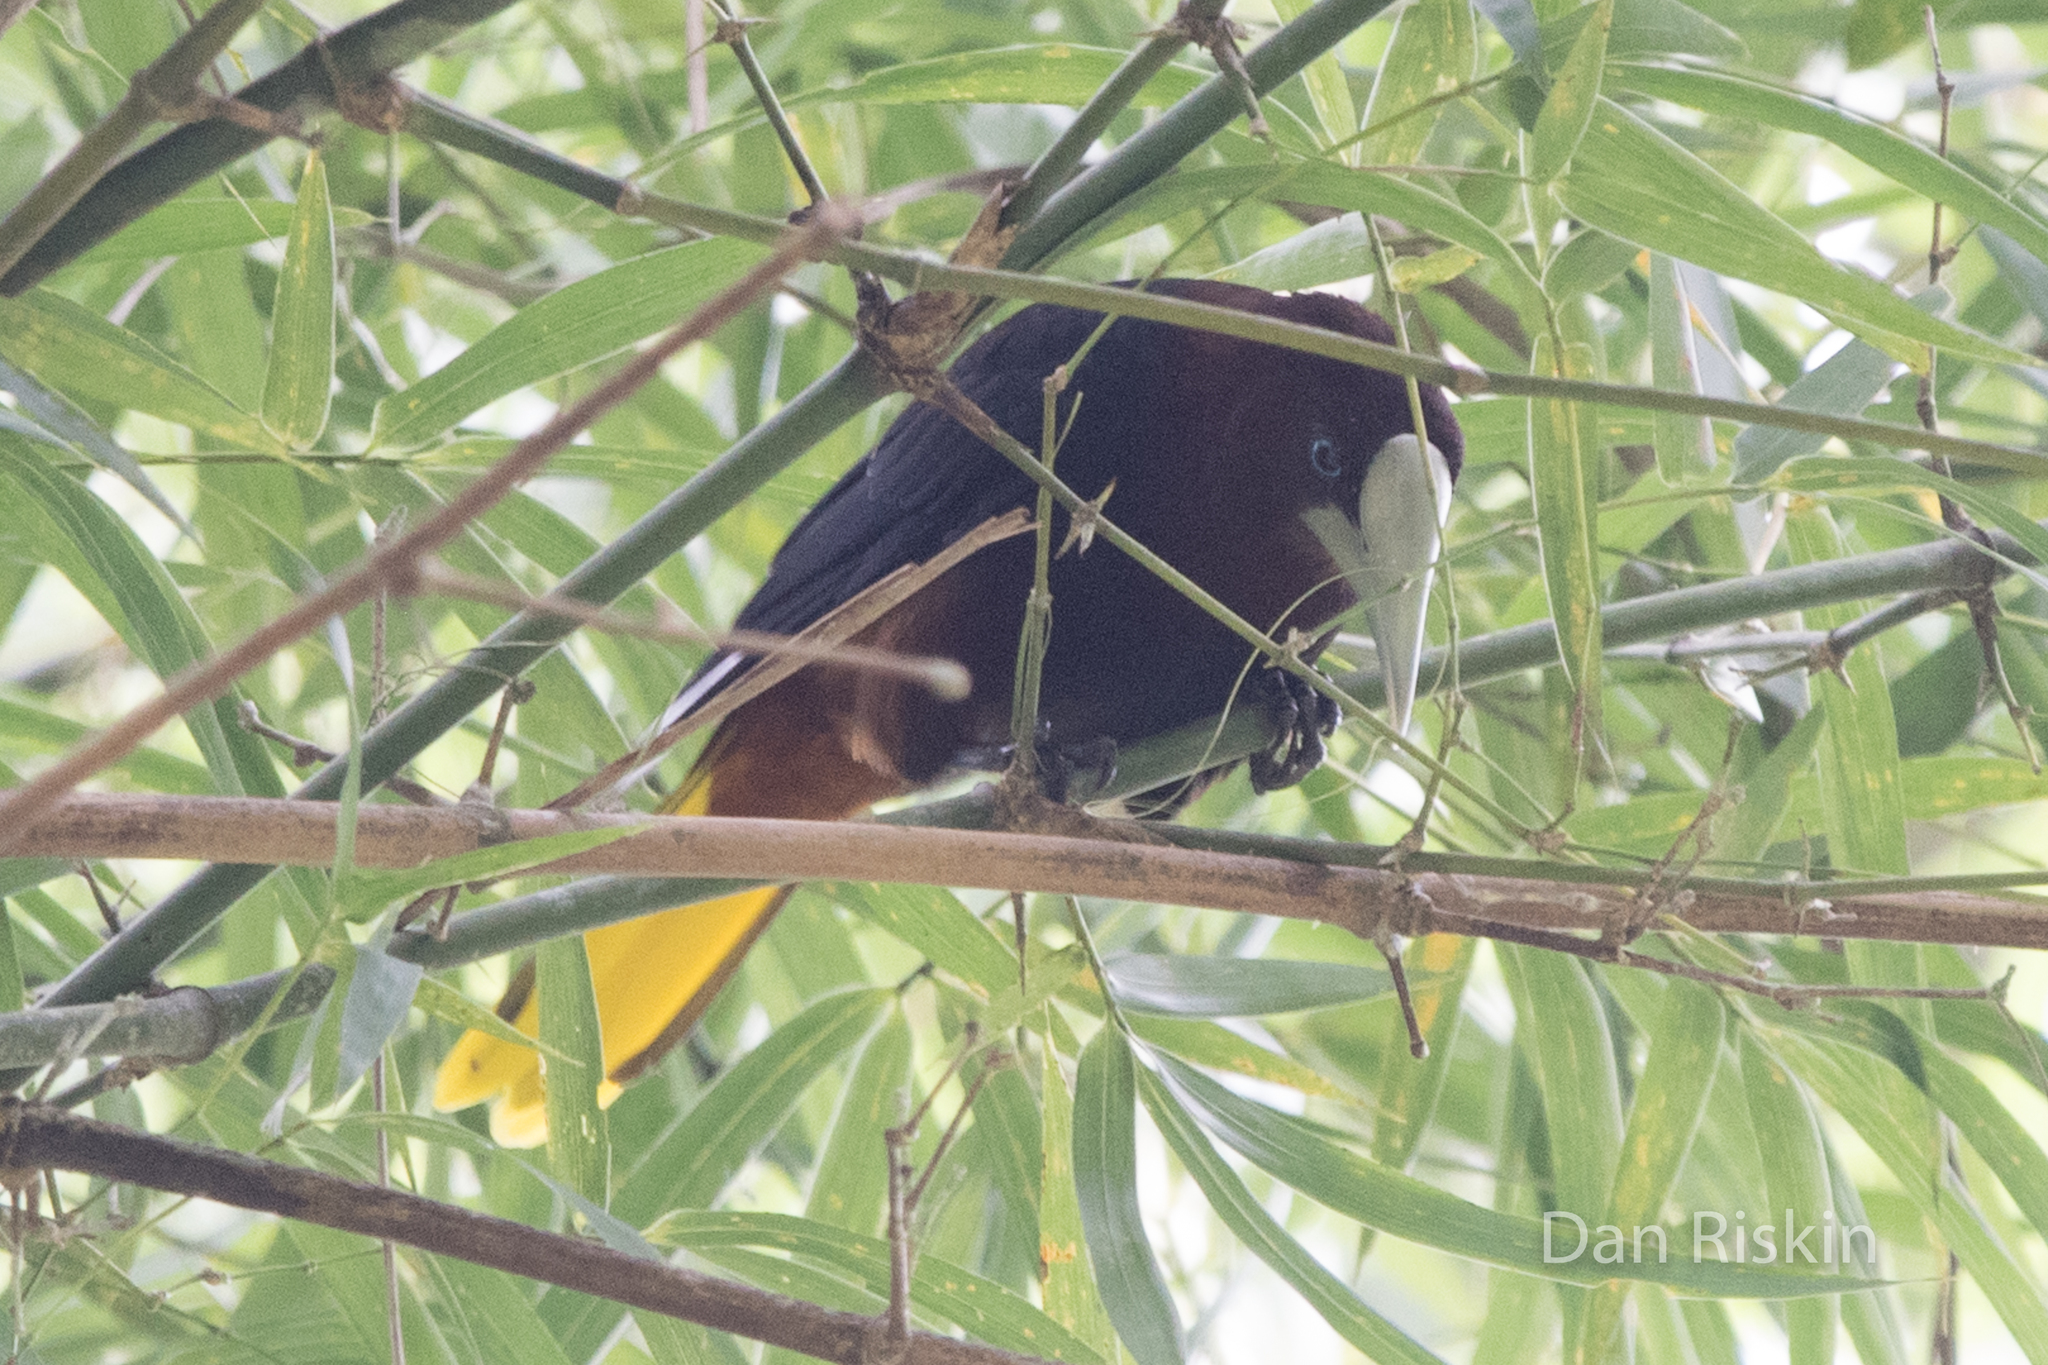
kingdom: Animalia
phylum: Chordata
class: Aves
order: Passeriformes
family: Icteridae
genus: Psarocolius
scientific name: Psarocolius wagleri
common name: Chestnut-headed oropendola
